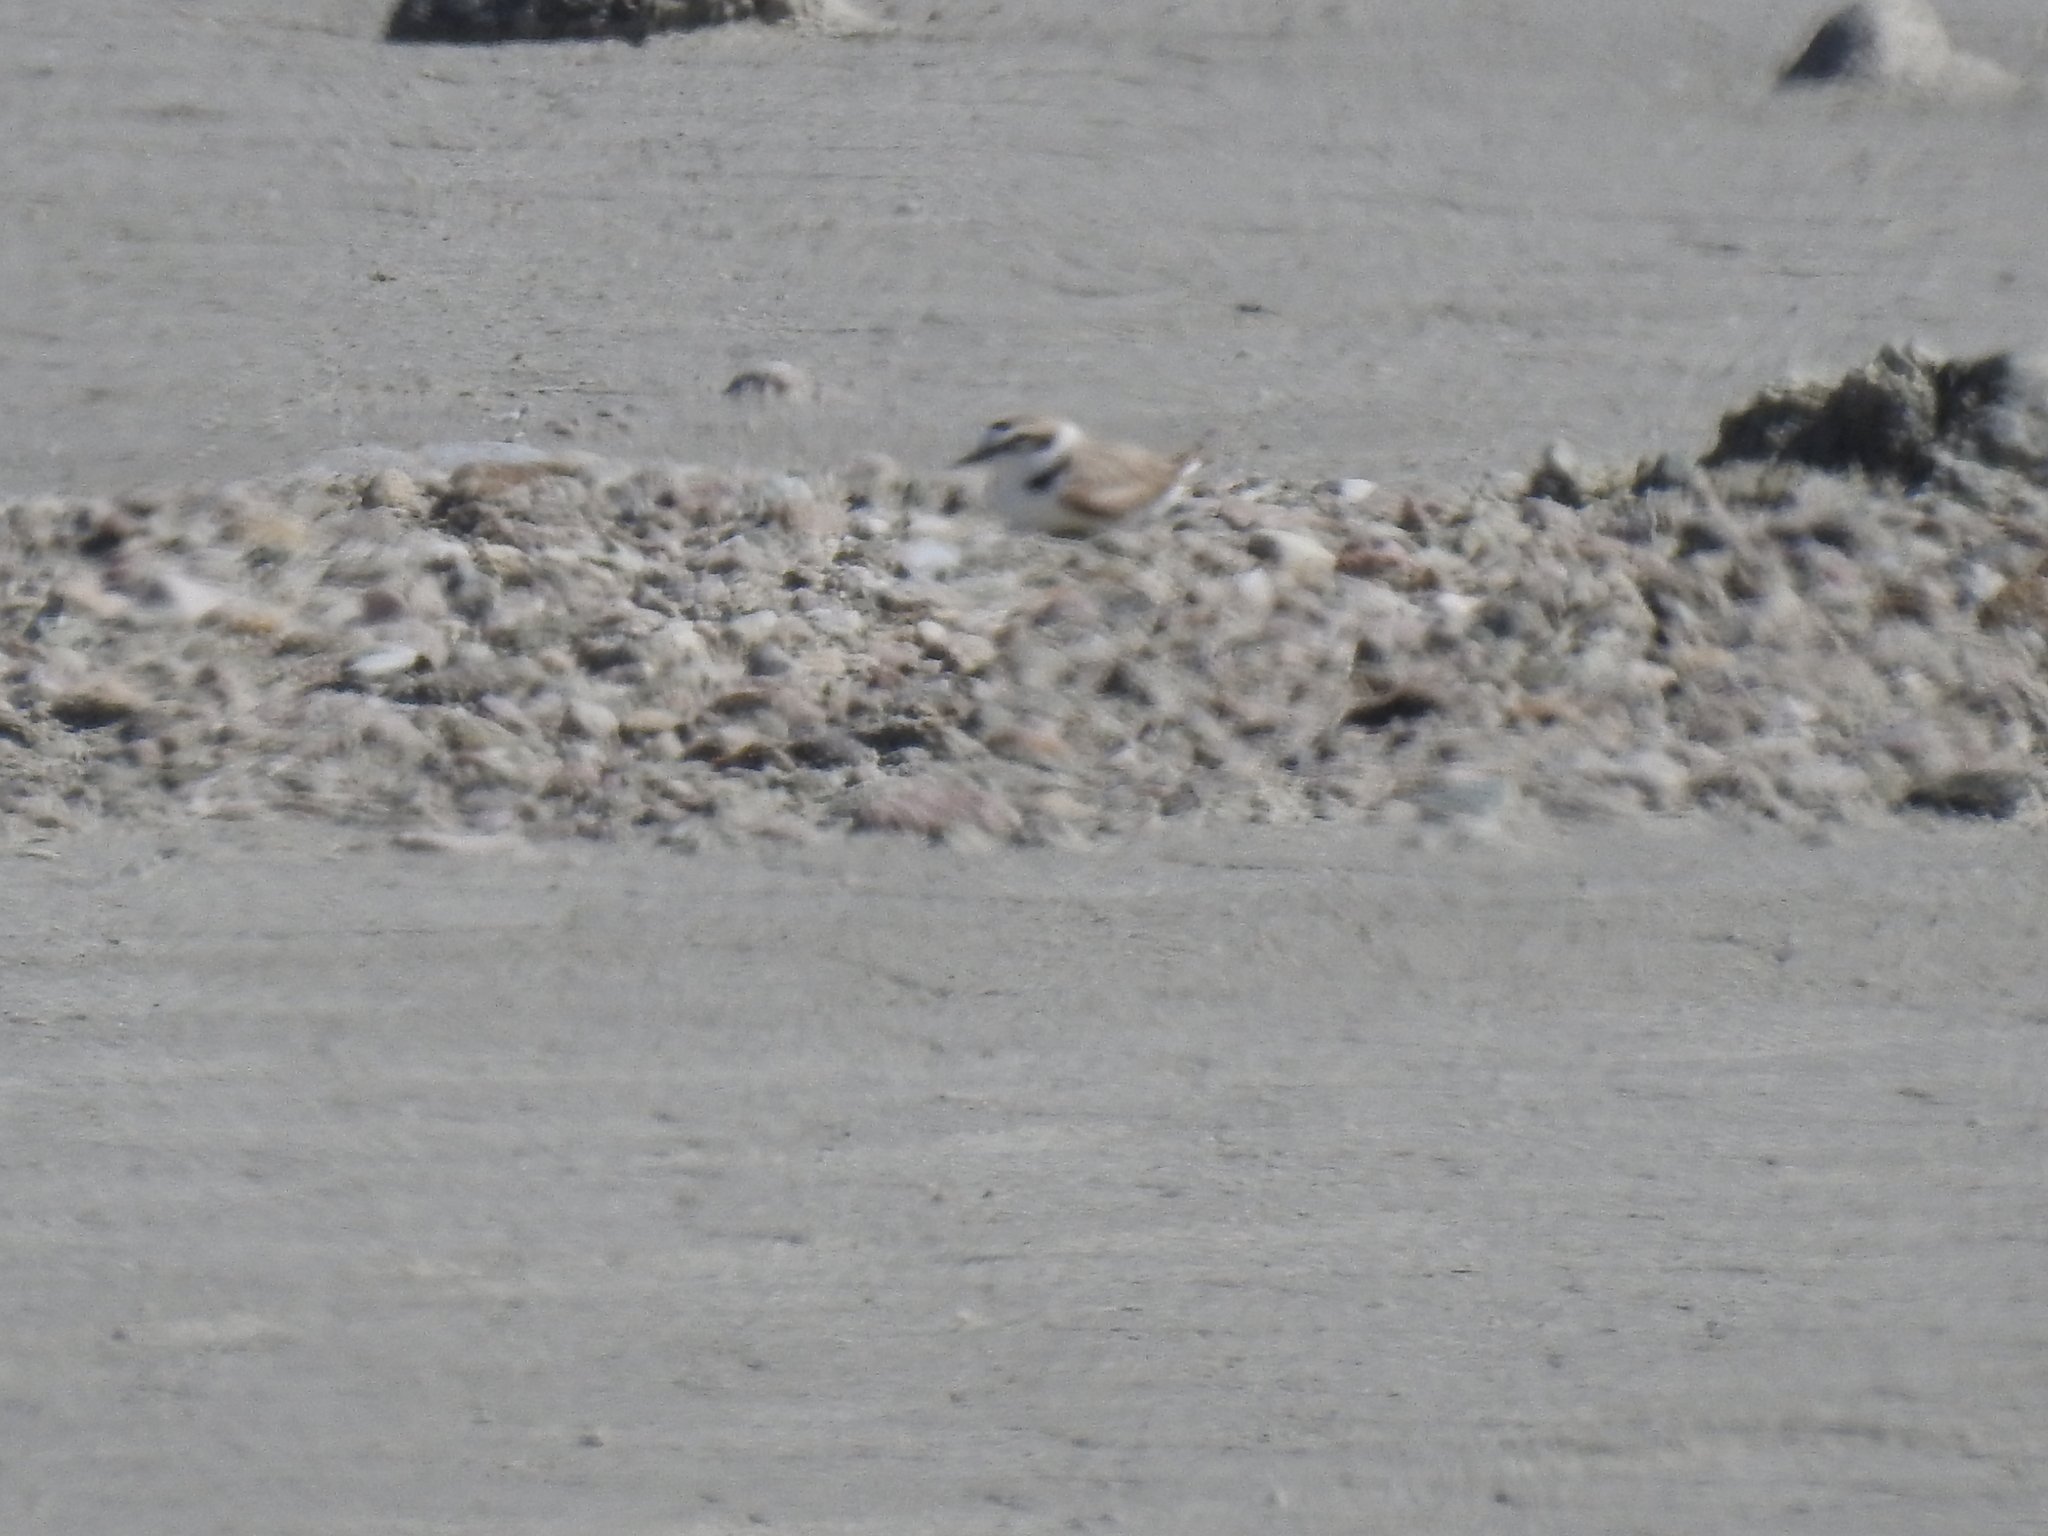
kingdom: Animalia
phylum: Chordata
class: Aves
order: Charadriiformes
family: Charadriidae
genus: Anarhynchus
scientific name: Anarhynchus
